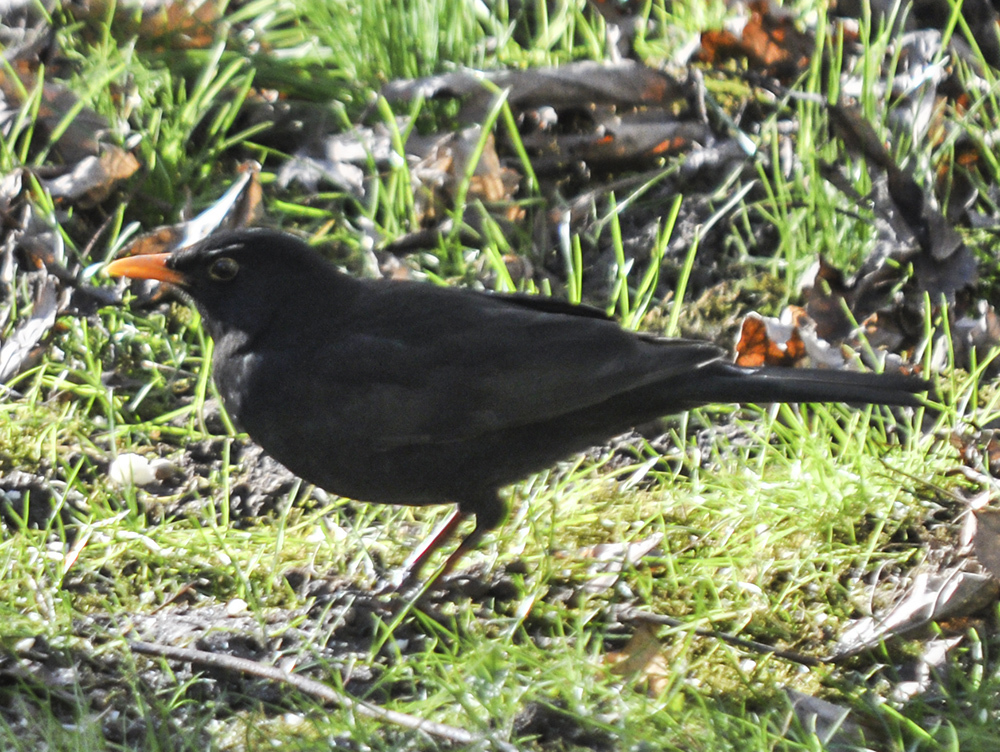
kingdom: Animalia
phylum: Chordata
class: Aves
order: Passeriformes
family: Turdidae
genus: Turdus
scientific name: Turdus merula
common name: Common blackbird
